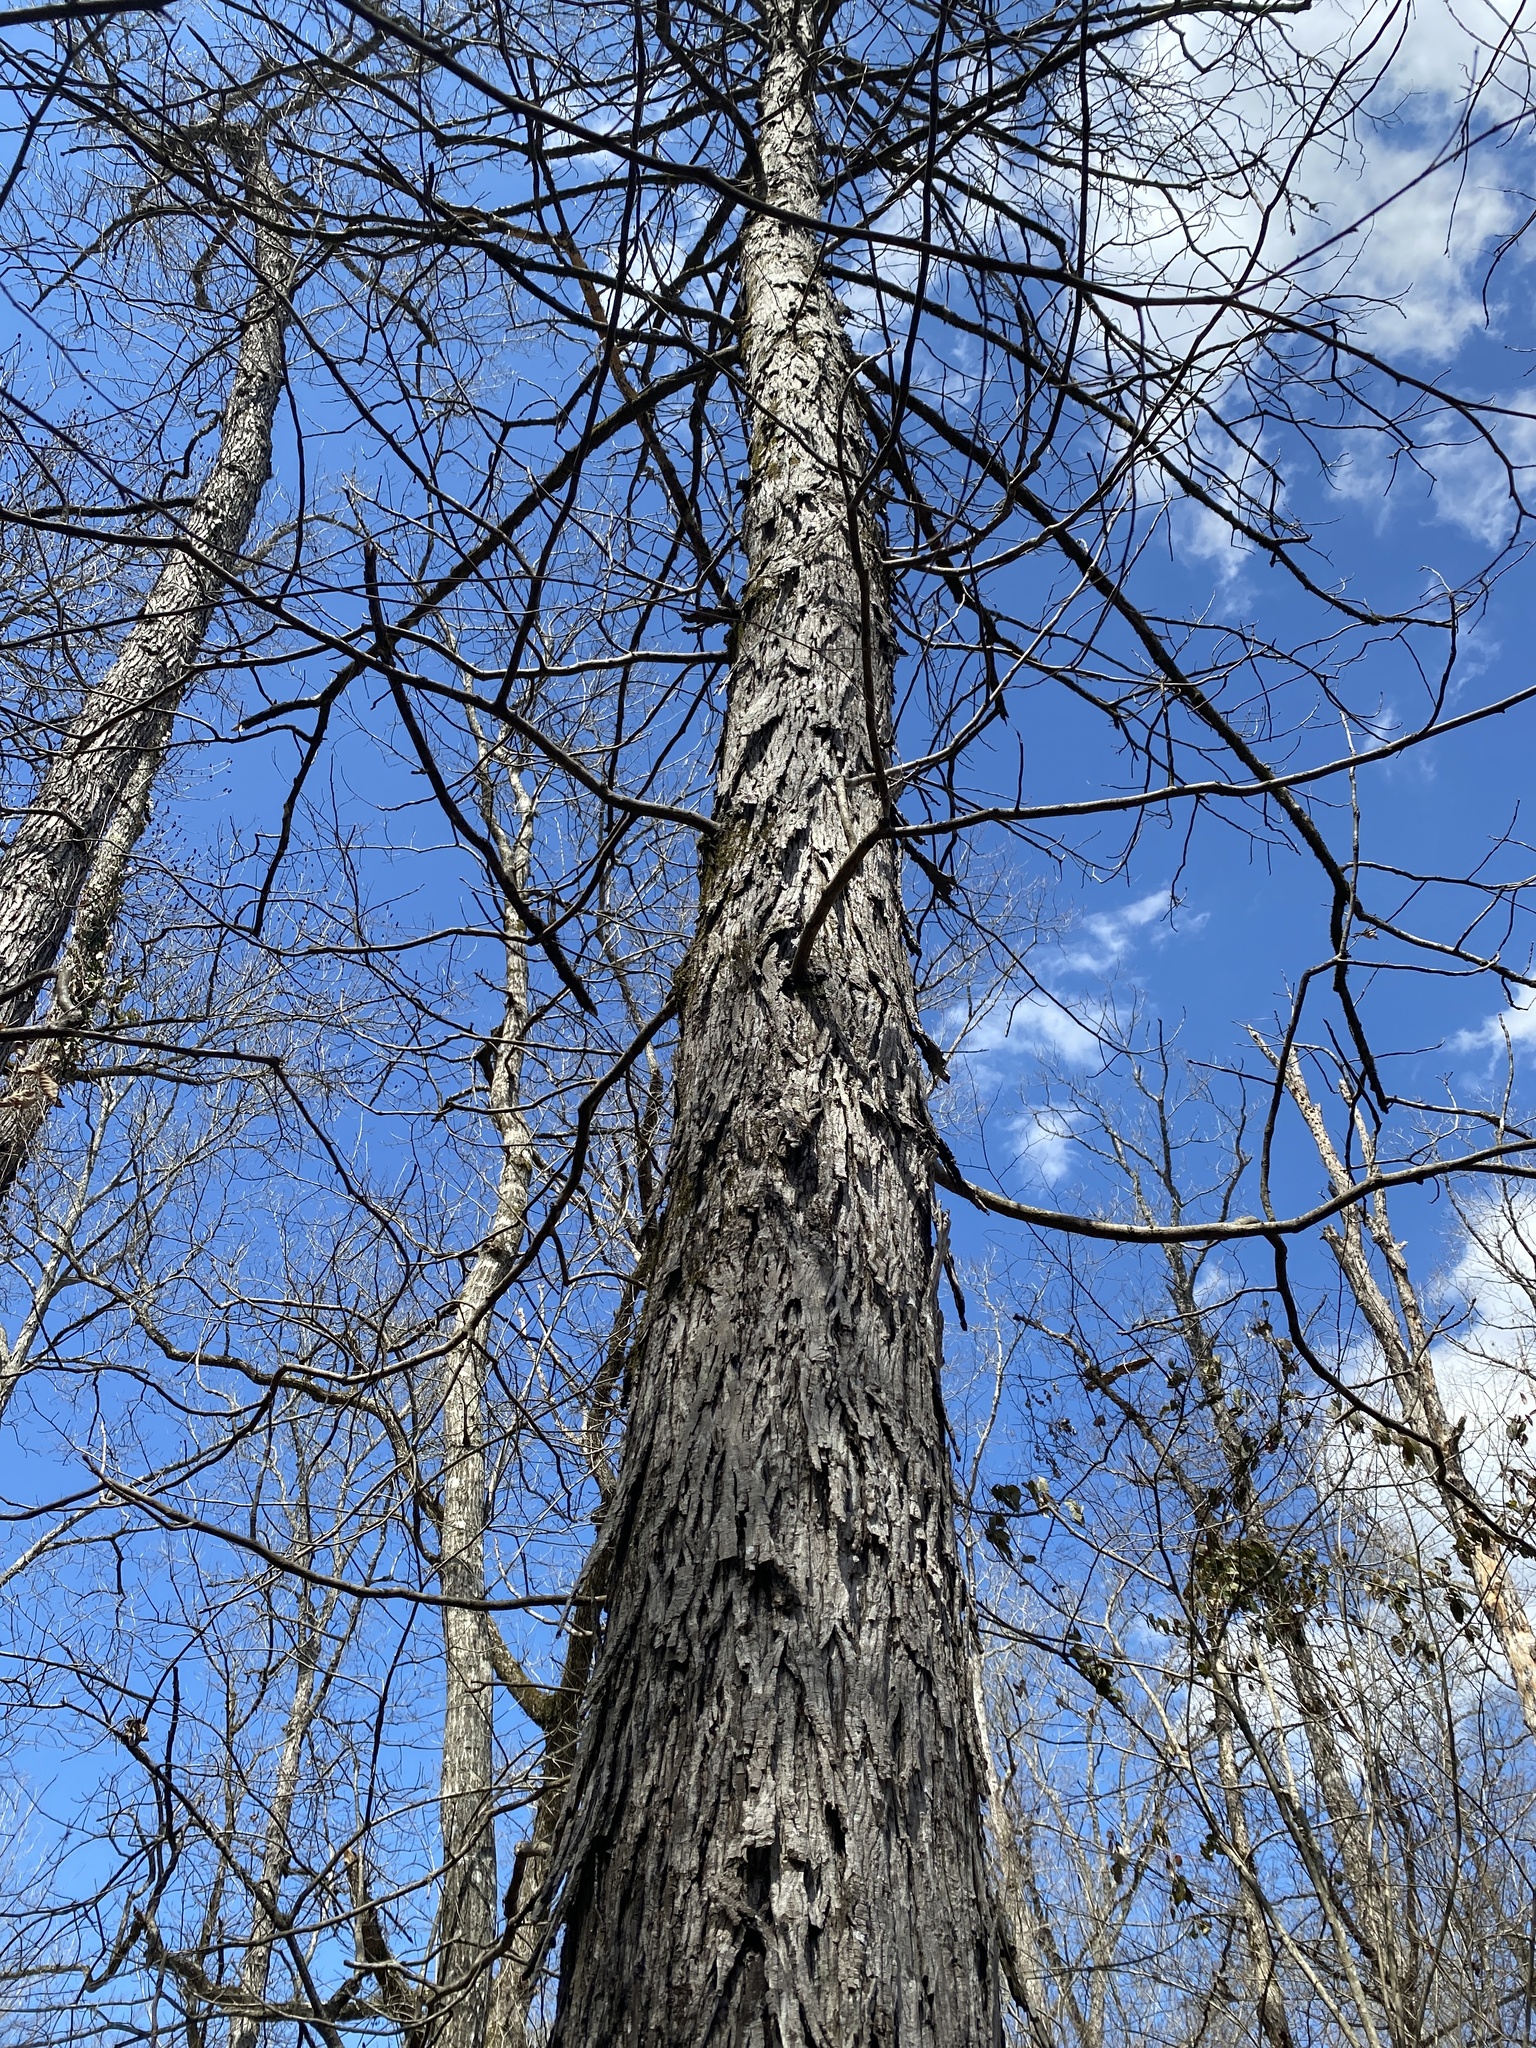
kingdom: Plantae
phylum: Tracheophyta
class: Magnoliopsida
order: Fagales
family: Juglandaceae
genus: Carya
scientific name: Carya ovata
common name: Shagbark hickory
